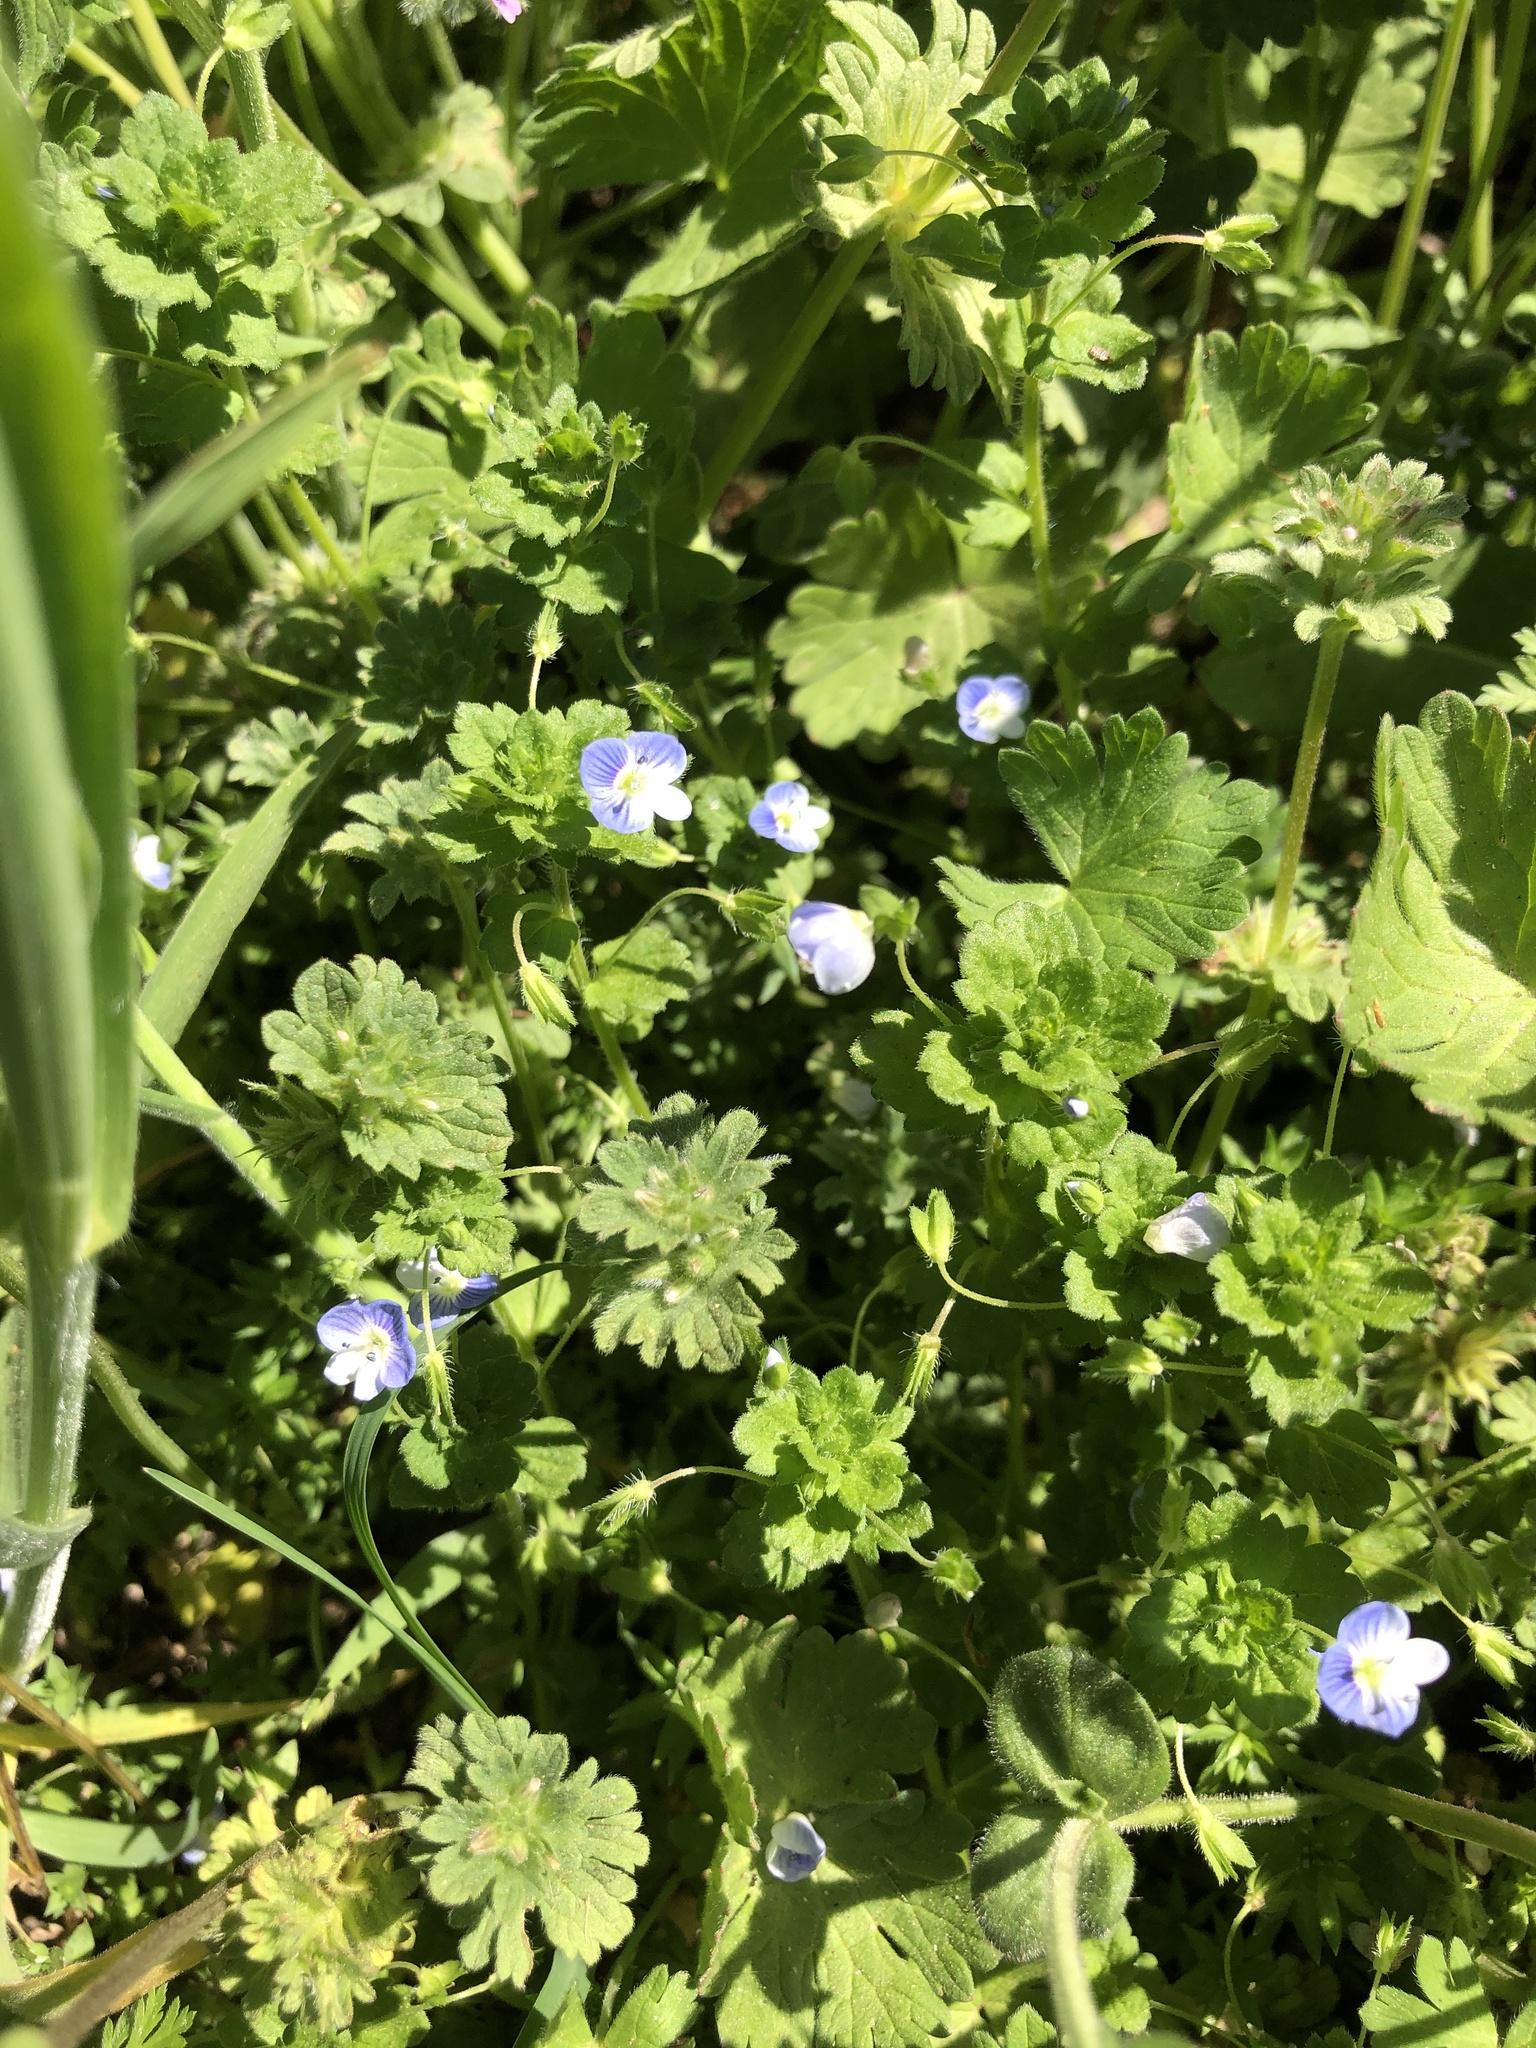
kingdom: Plantae
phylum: Tracheophyta
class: Magnoliopsida
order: Lamiales
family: Plantaginaceae
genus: Veronica
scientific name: Veronica persica
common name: Common field-speedwell
